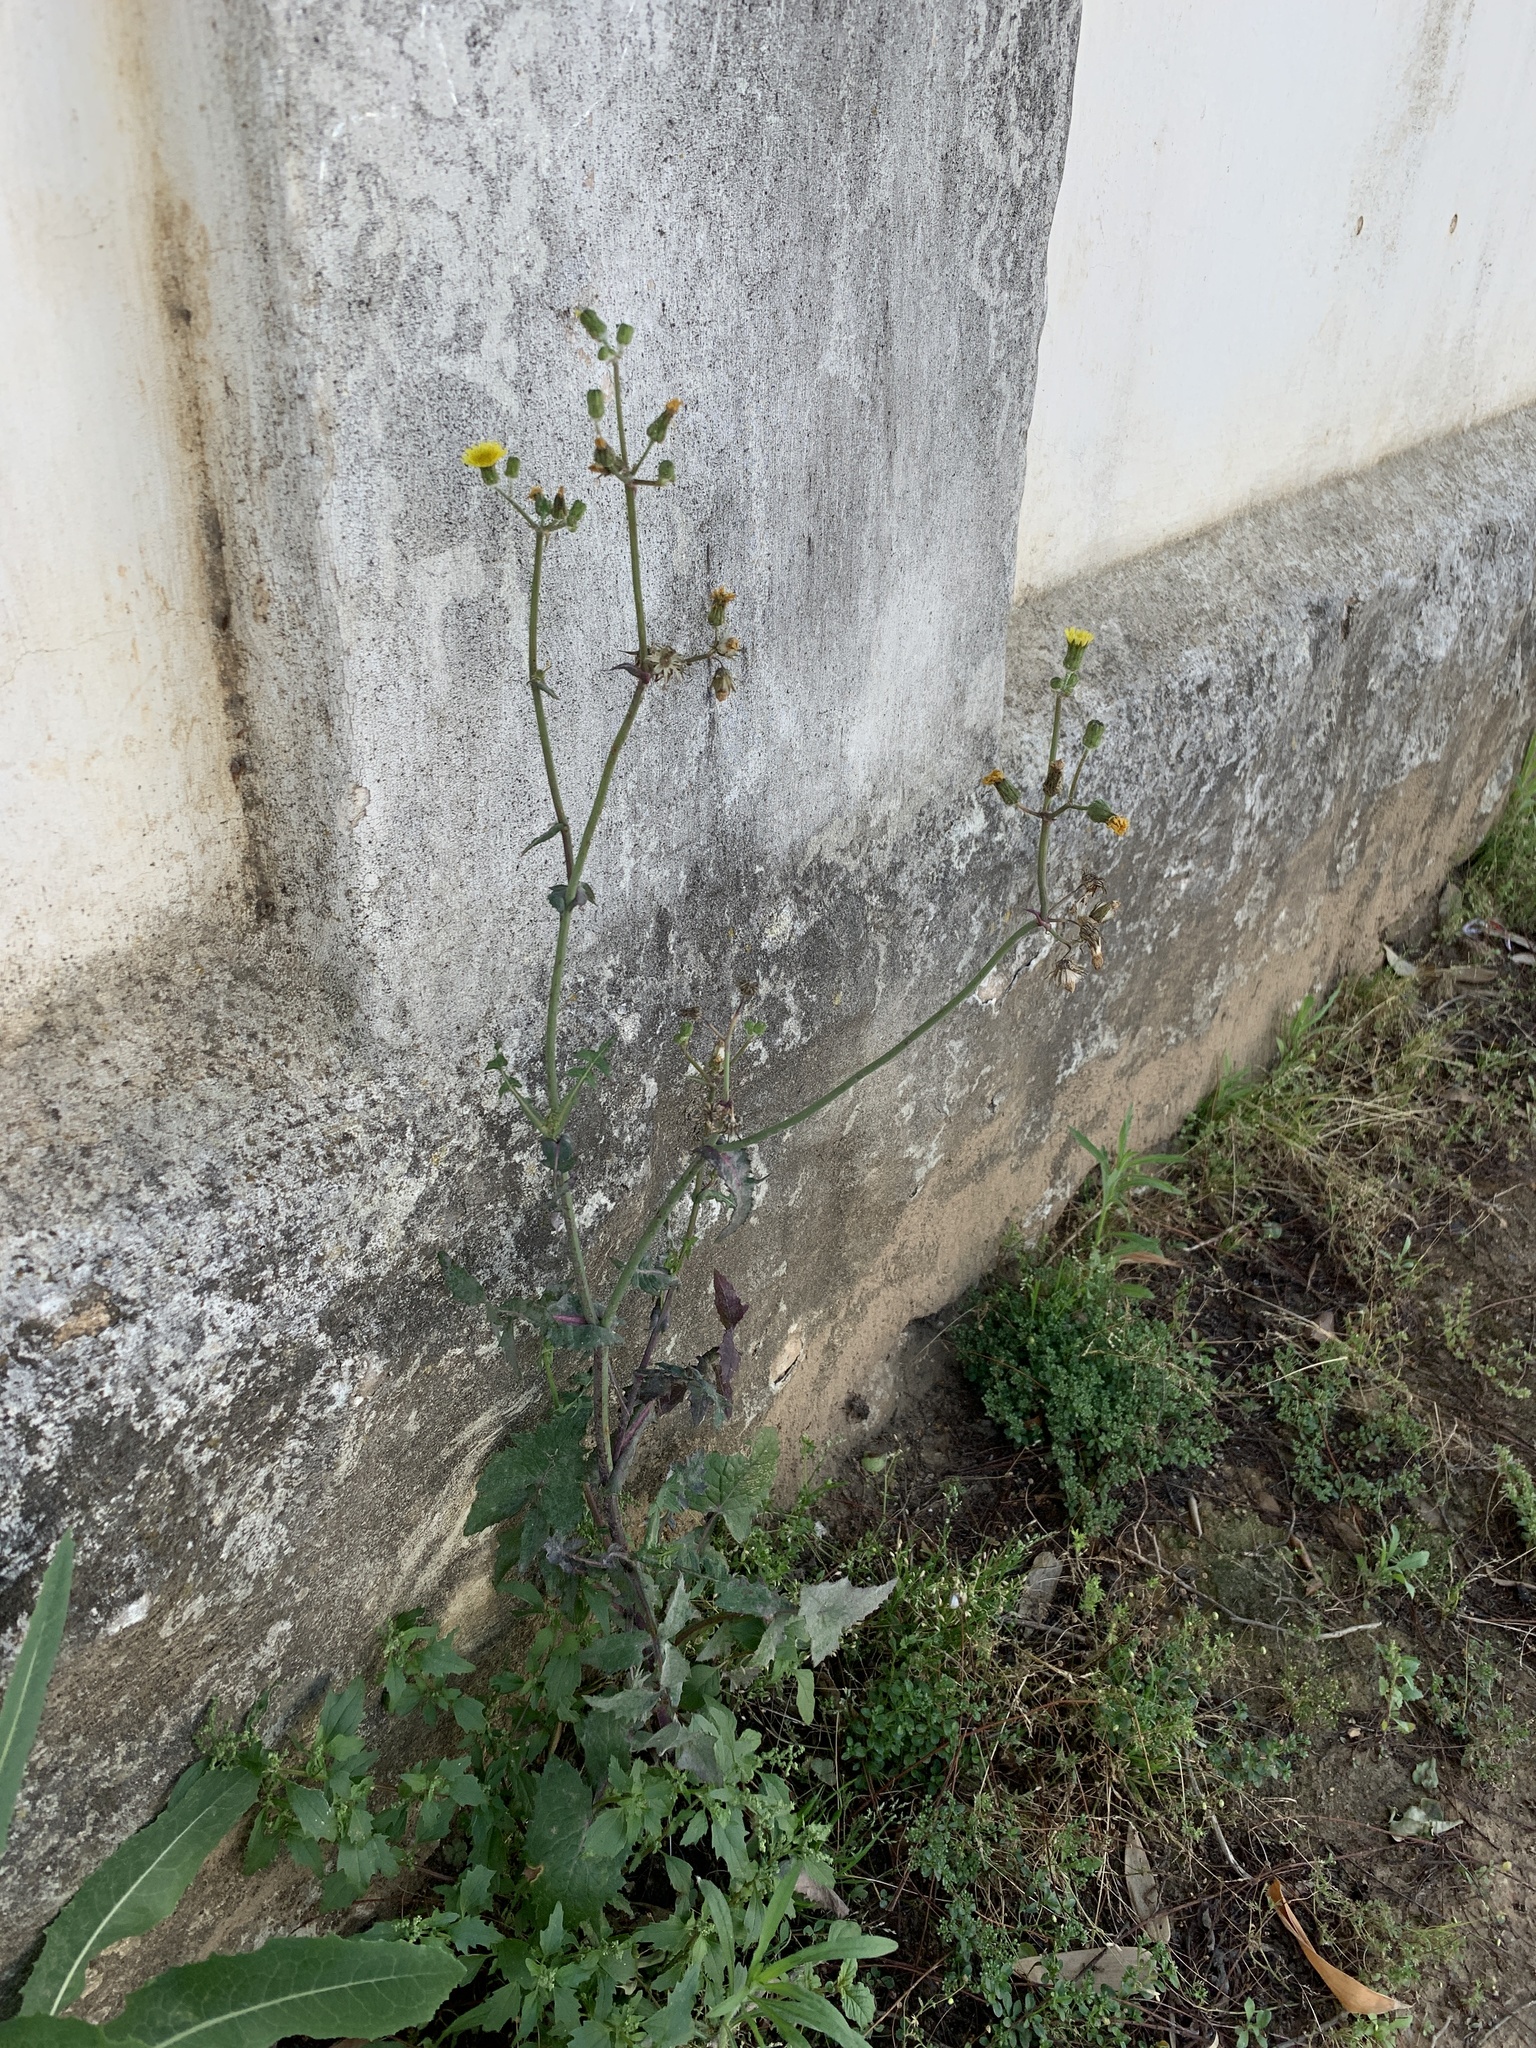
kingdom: Plantae
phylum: Tracheophyta
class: Magnoliopsida
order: Asterales
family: Asteraceae
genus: Sonchus
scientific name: Sonchus oleraceus
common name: Common sowthistle
